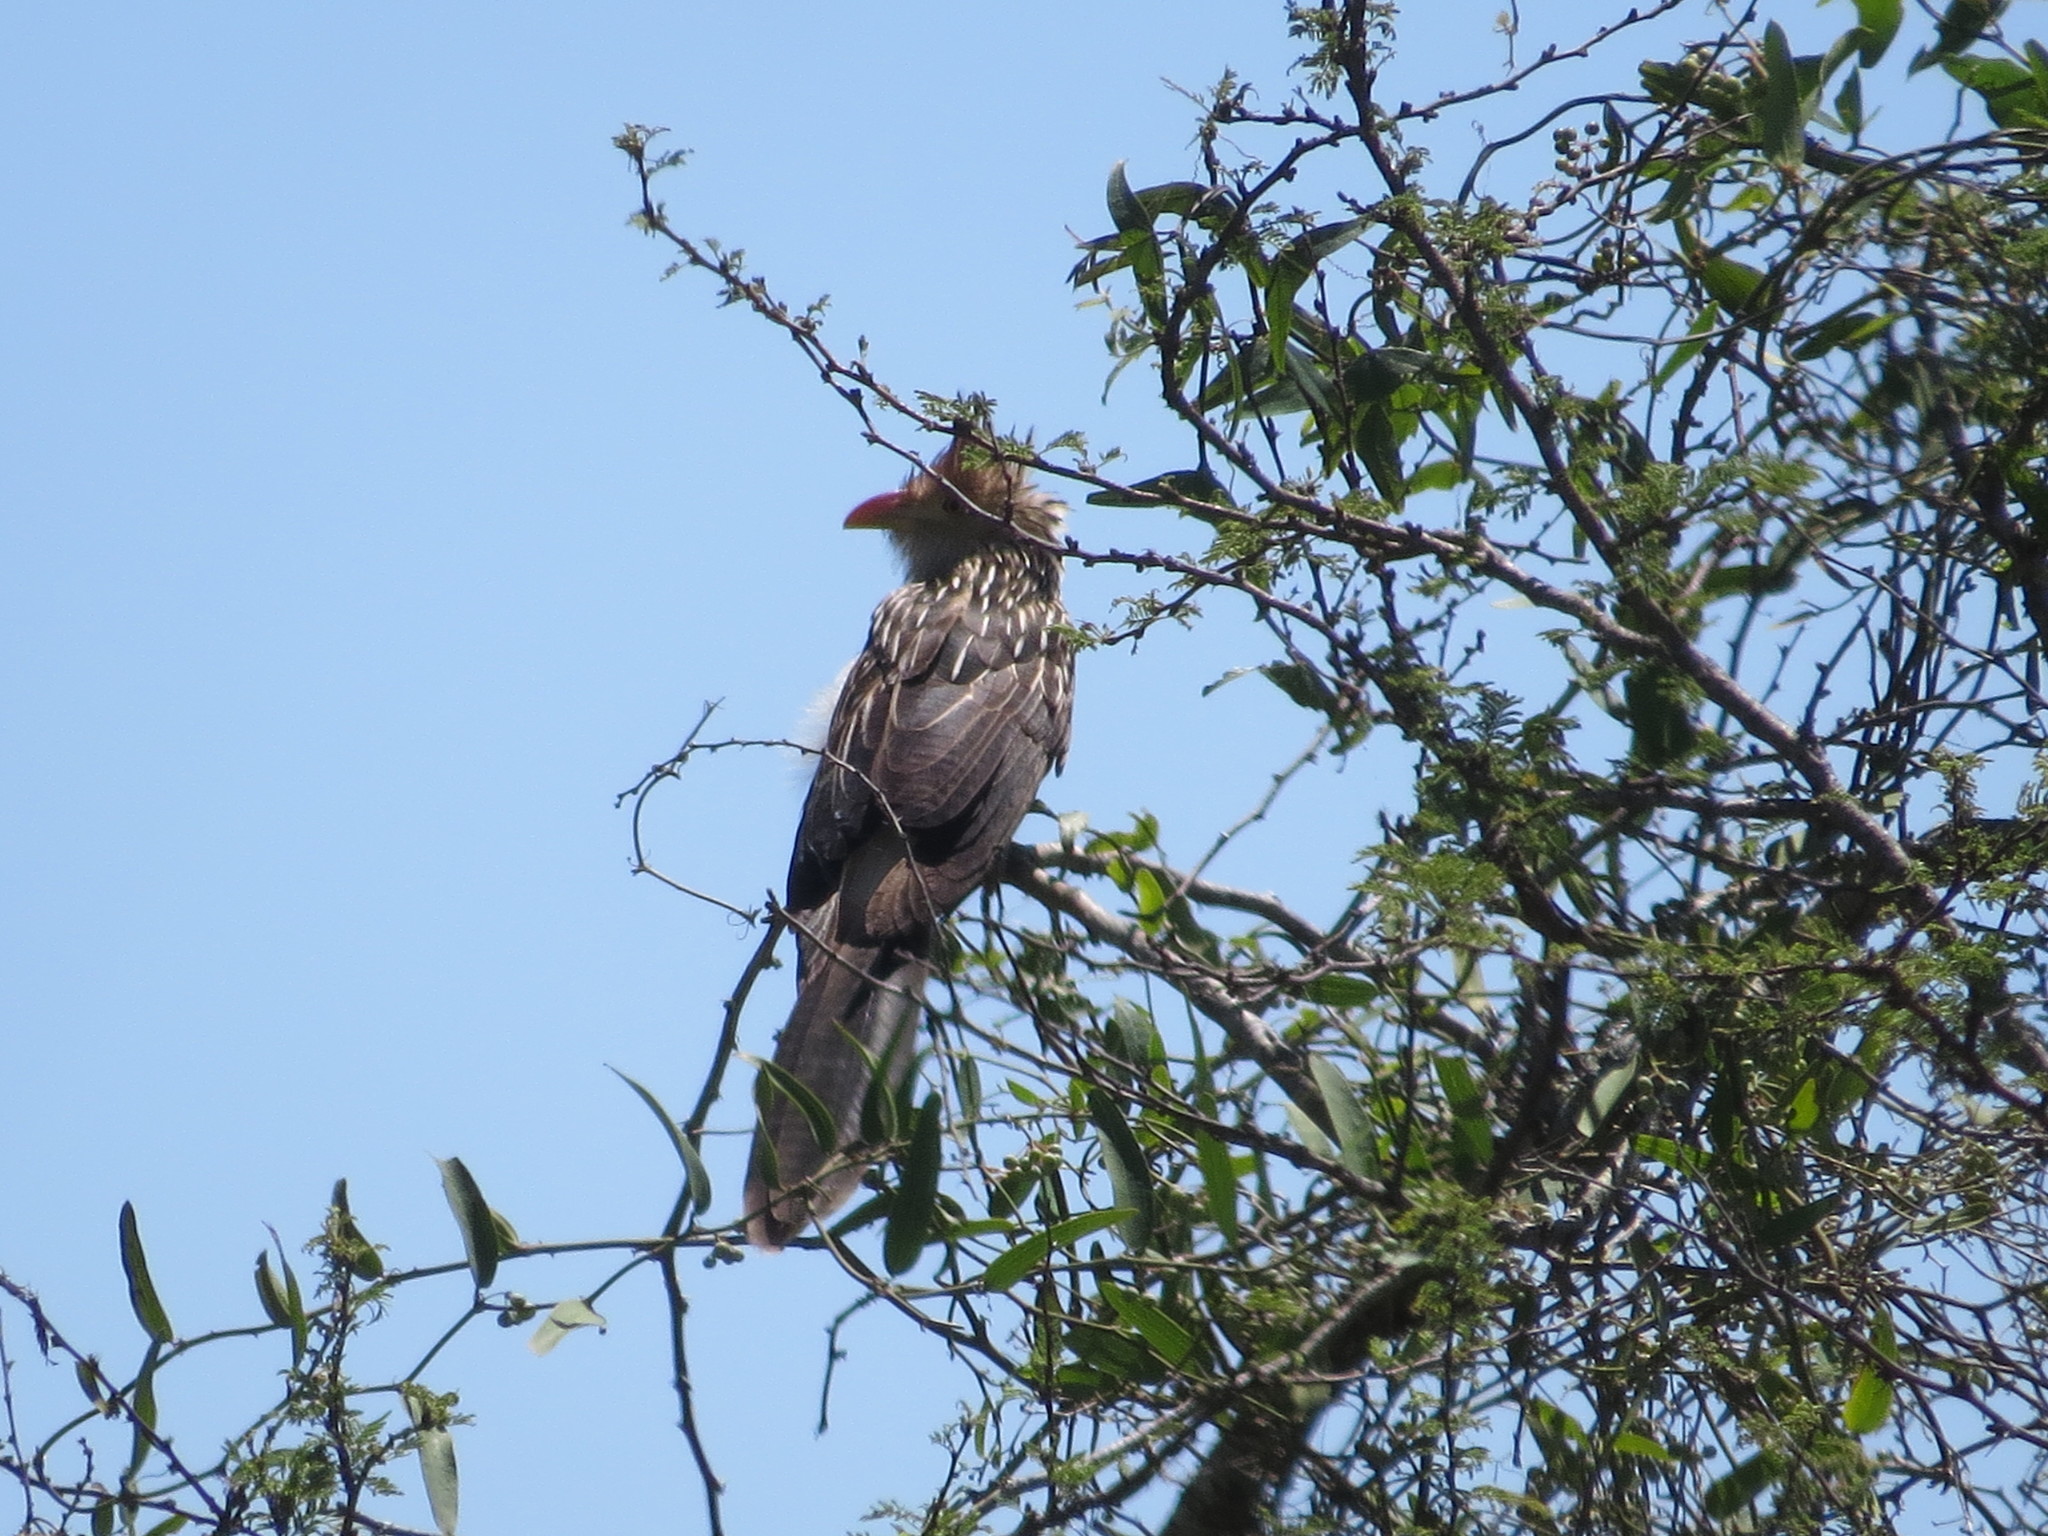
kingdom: Animalia
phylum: Chordata
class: Aves
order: Cuculiformes
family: Cuculidae
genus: Guira
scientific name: Guira guira
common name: Guira cuckoo
